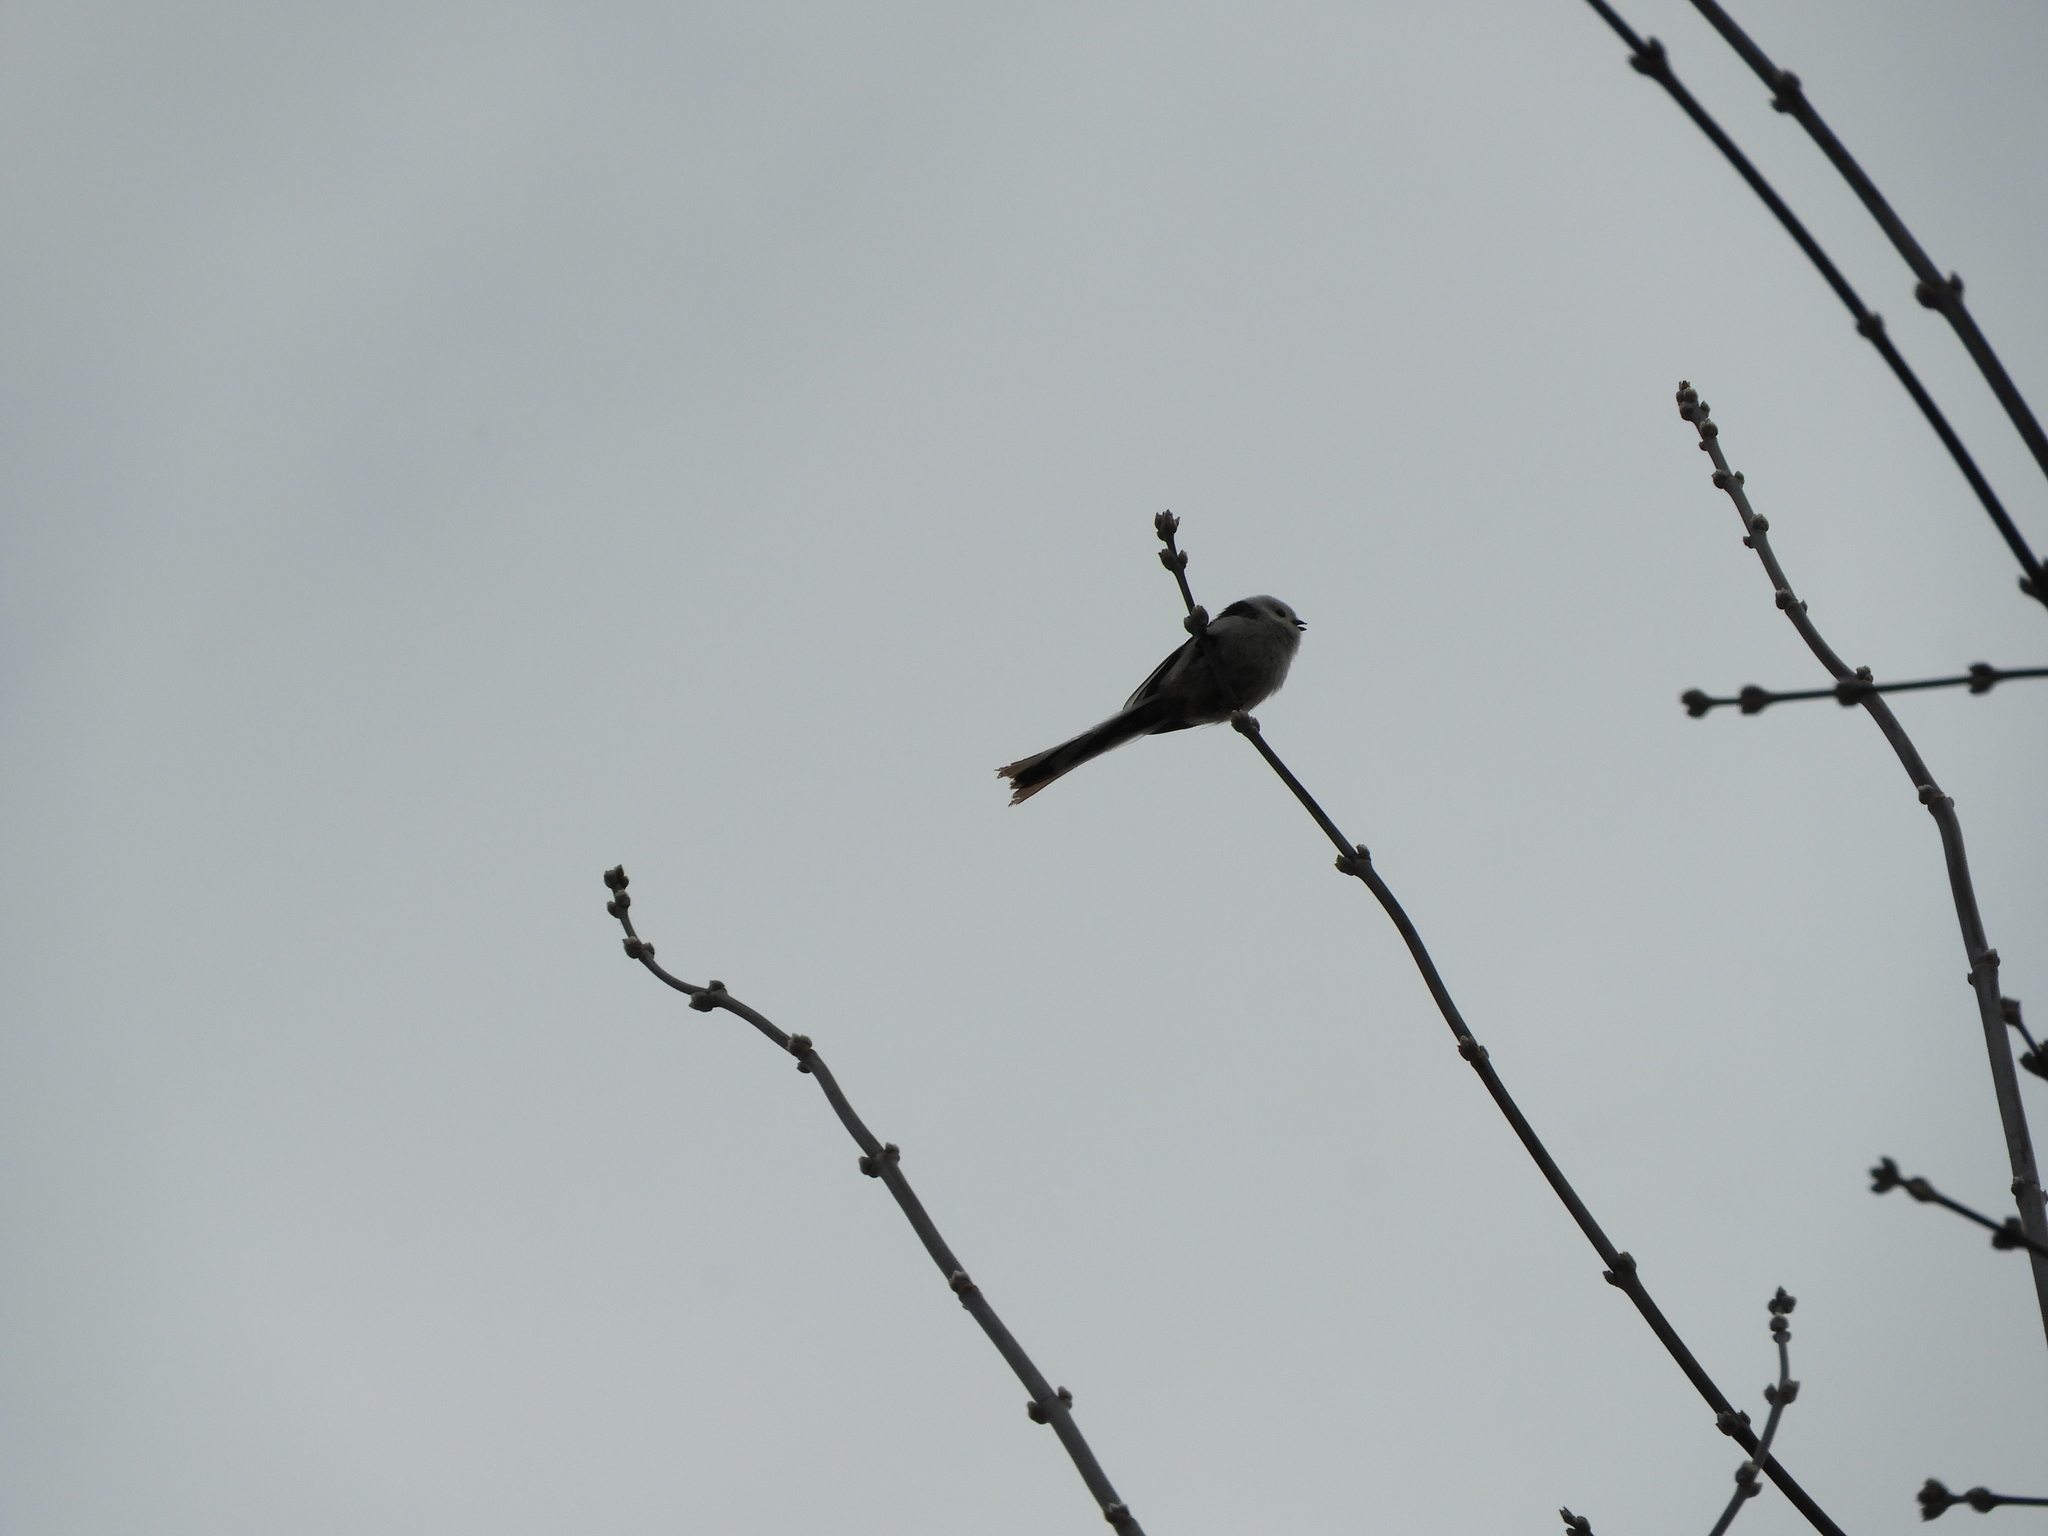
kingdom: Animalia
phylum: Chordata
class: Aves
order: Passeriformes
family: Aegithalidae
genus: Aegithalos
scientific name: Aegithalos caudatus
